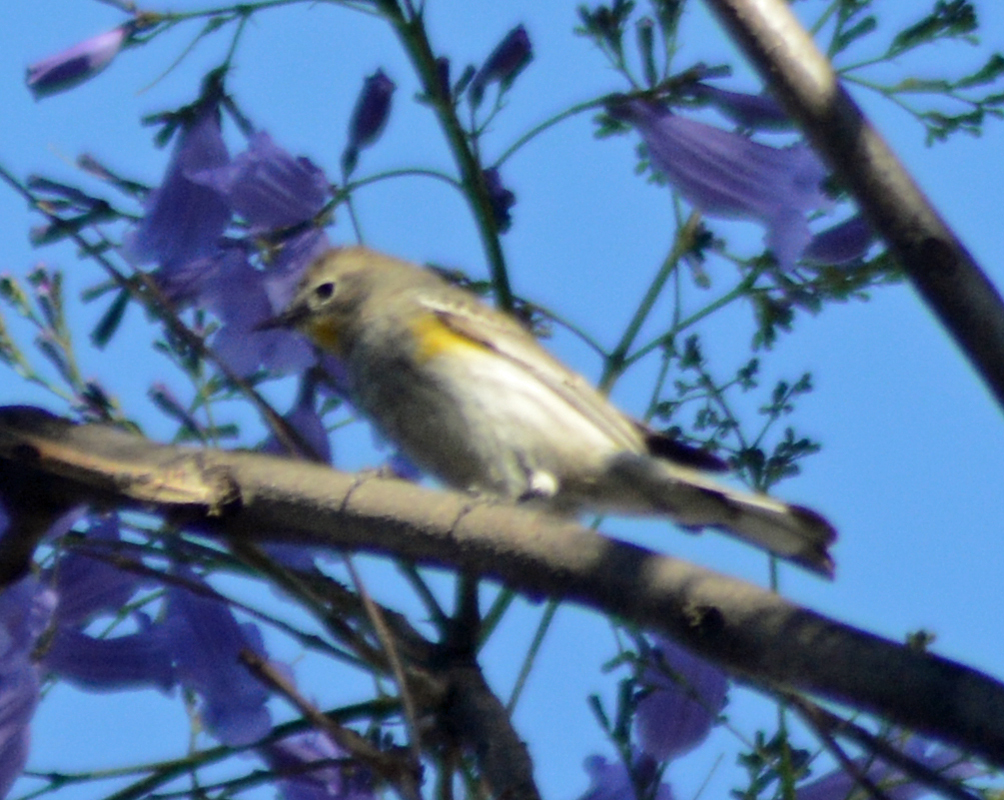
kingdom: Animalia
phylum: Chordata
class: Aves
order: Passeriformes
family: Parulidae
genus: Setophaga
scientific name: Setophaga coronata
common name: Myrtle warbler
